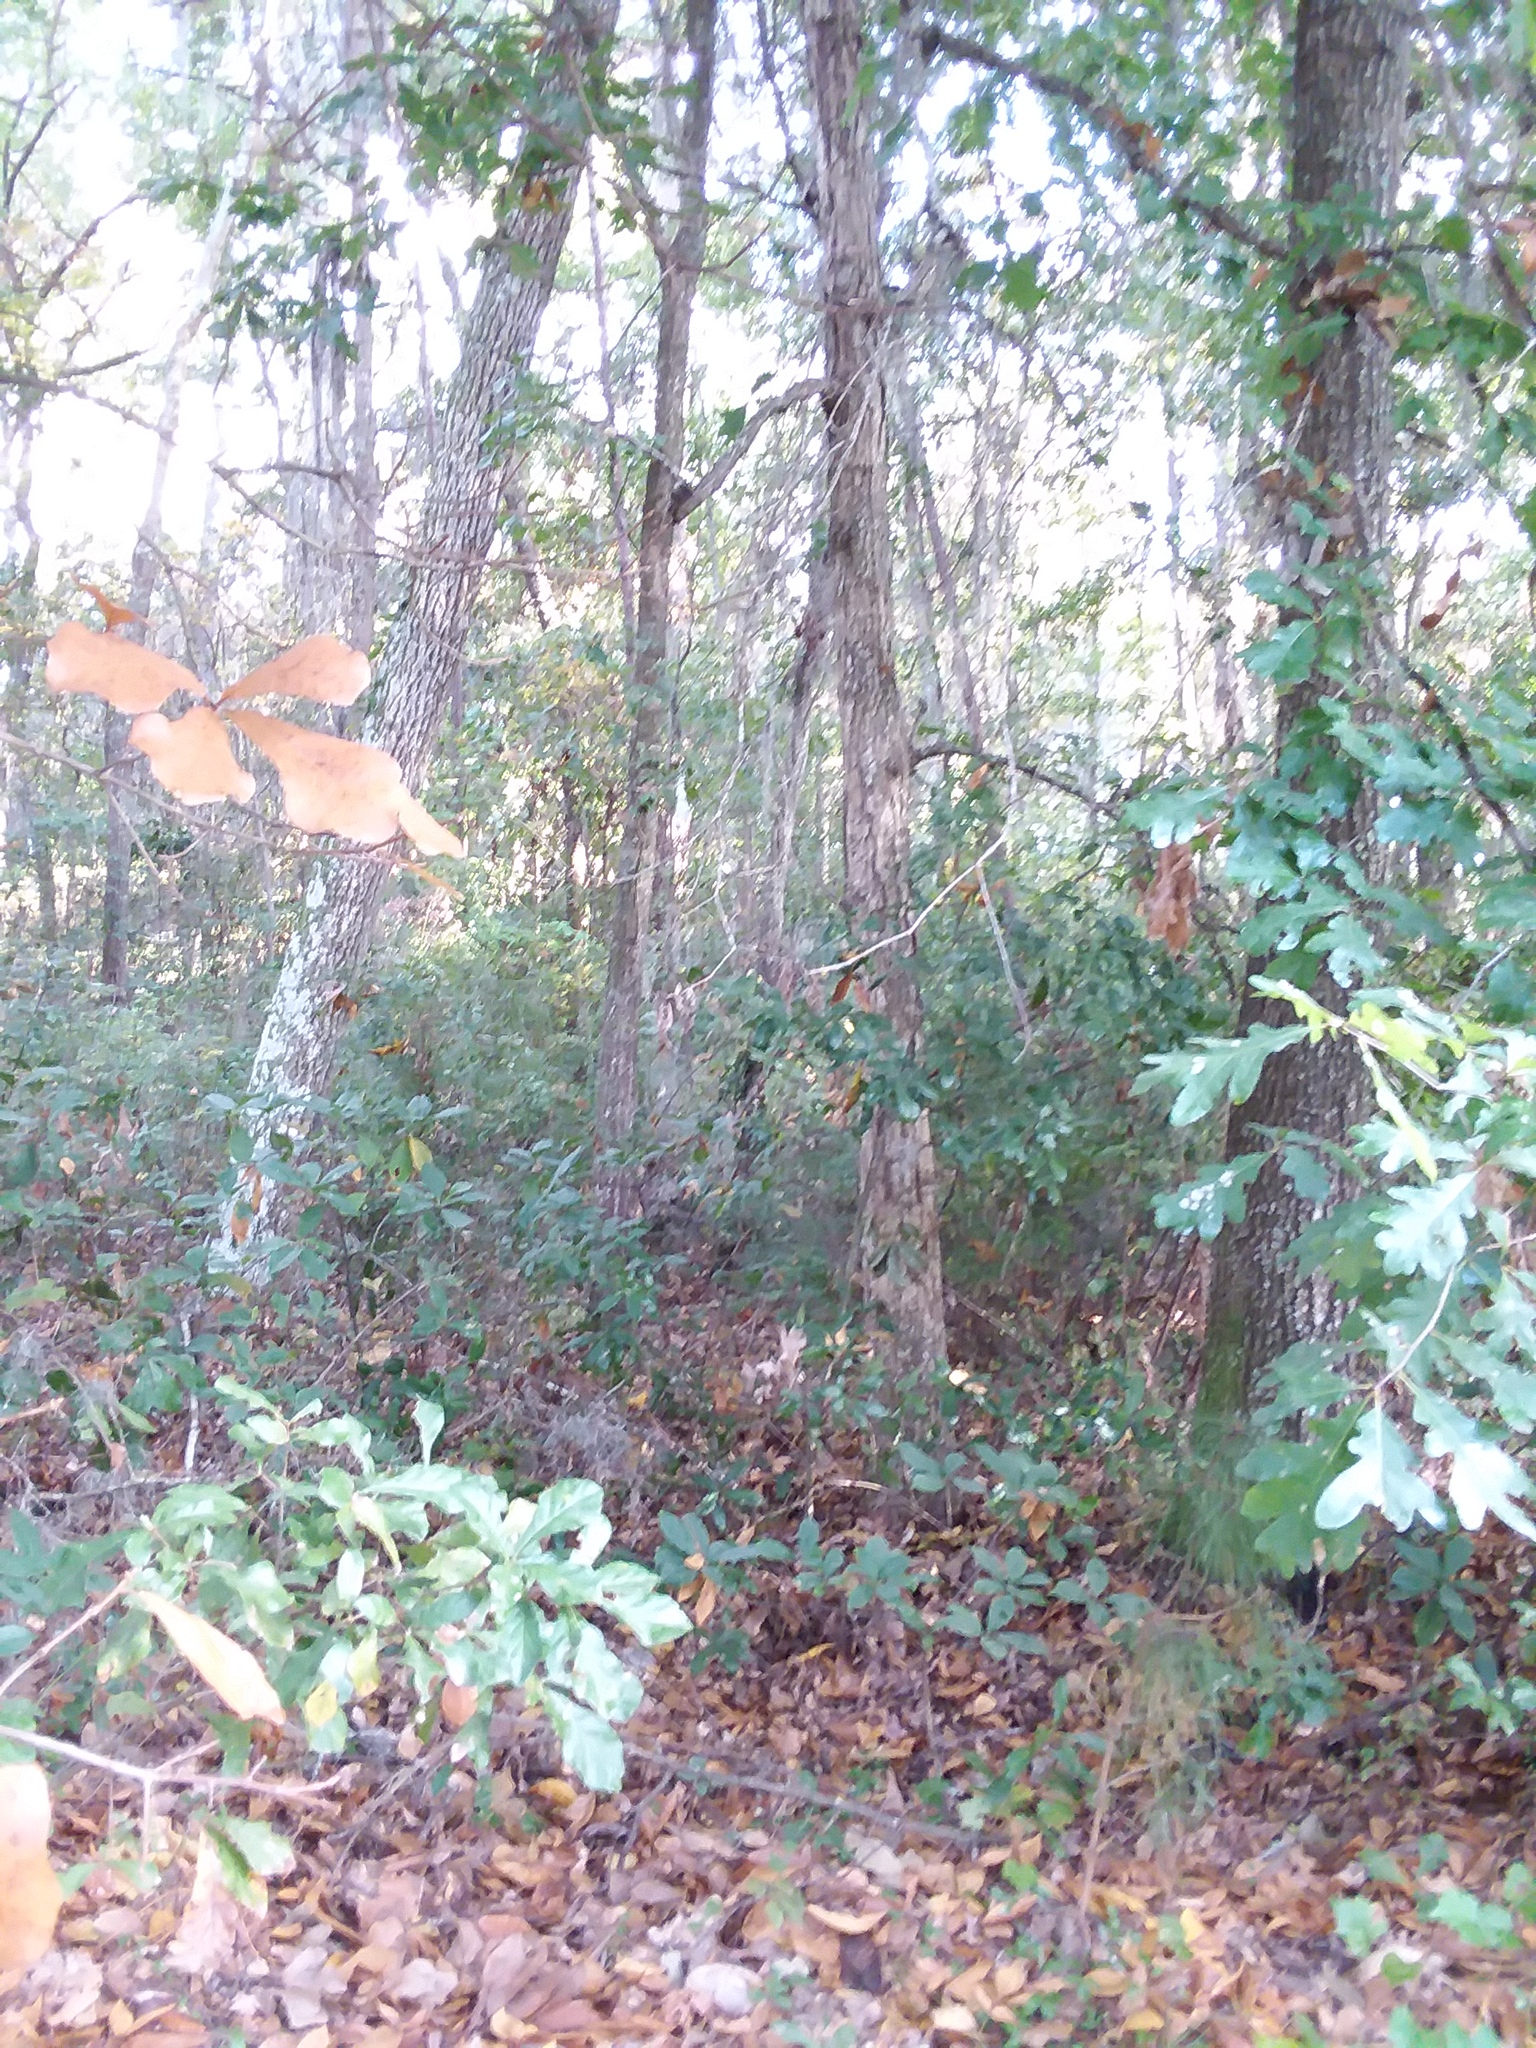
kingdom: Plantae
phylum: Tracheophyta
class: Magnoliopsida
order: Fagales
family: Fagaceae
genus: Quercus
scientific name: Quercus alba
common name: White oak
